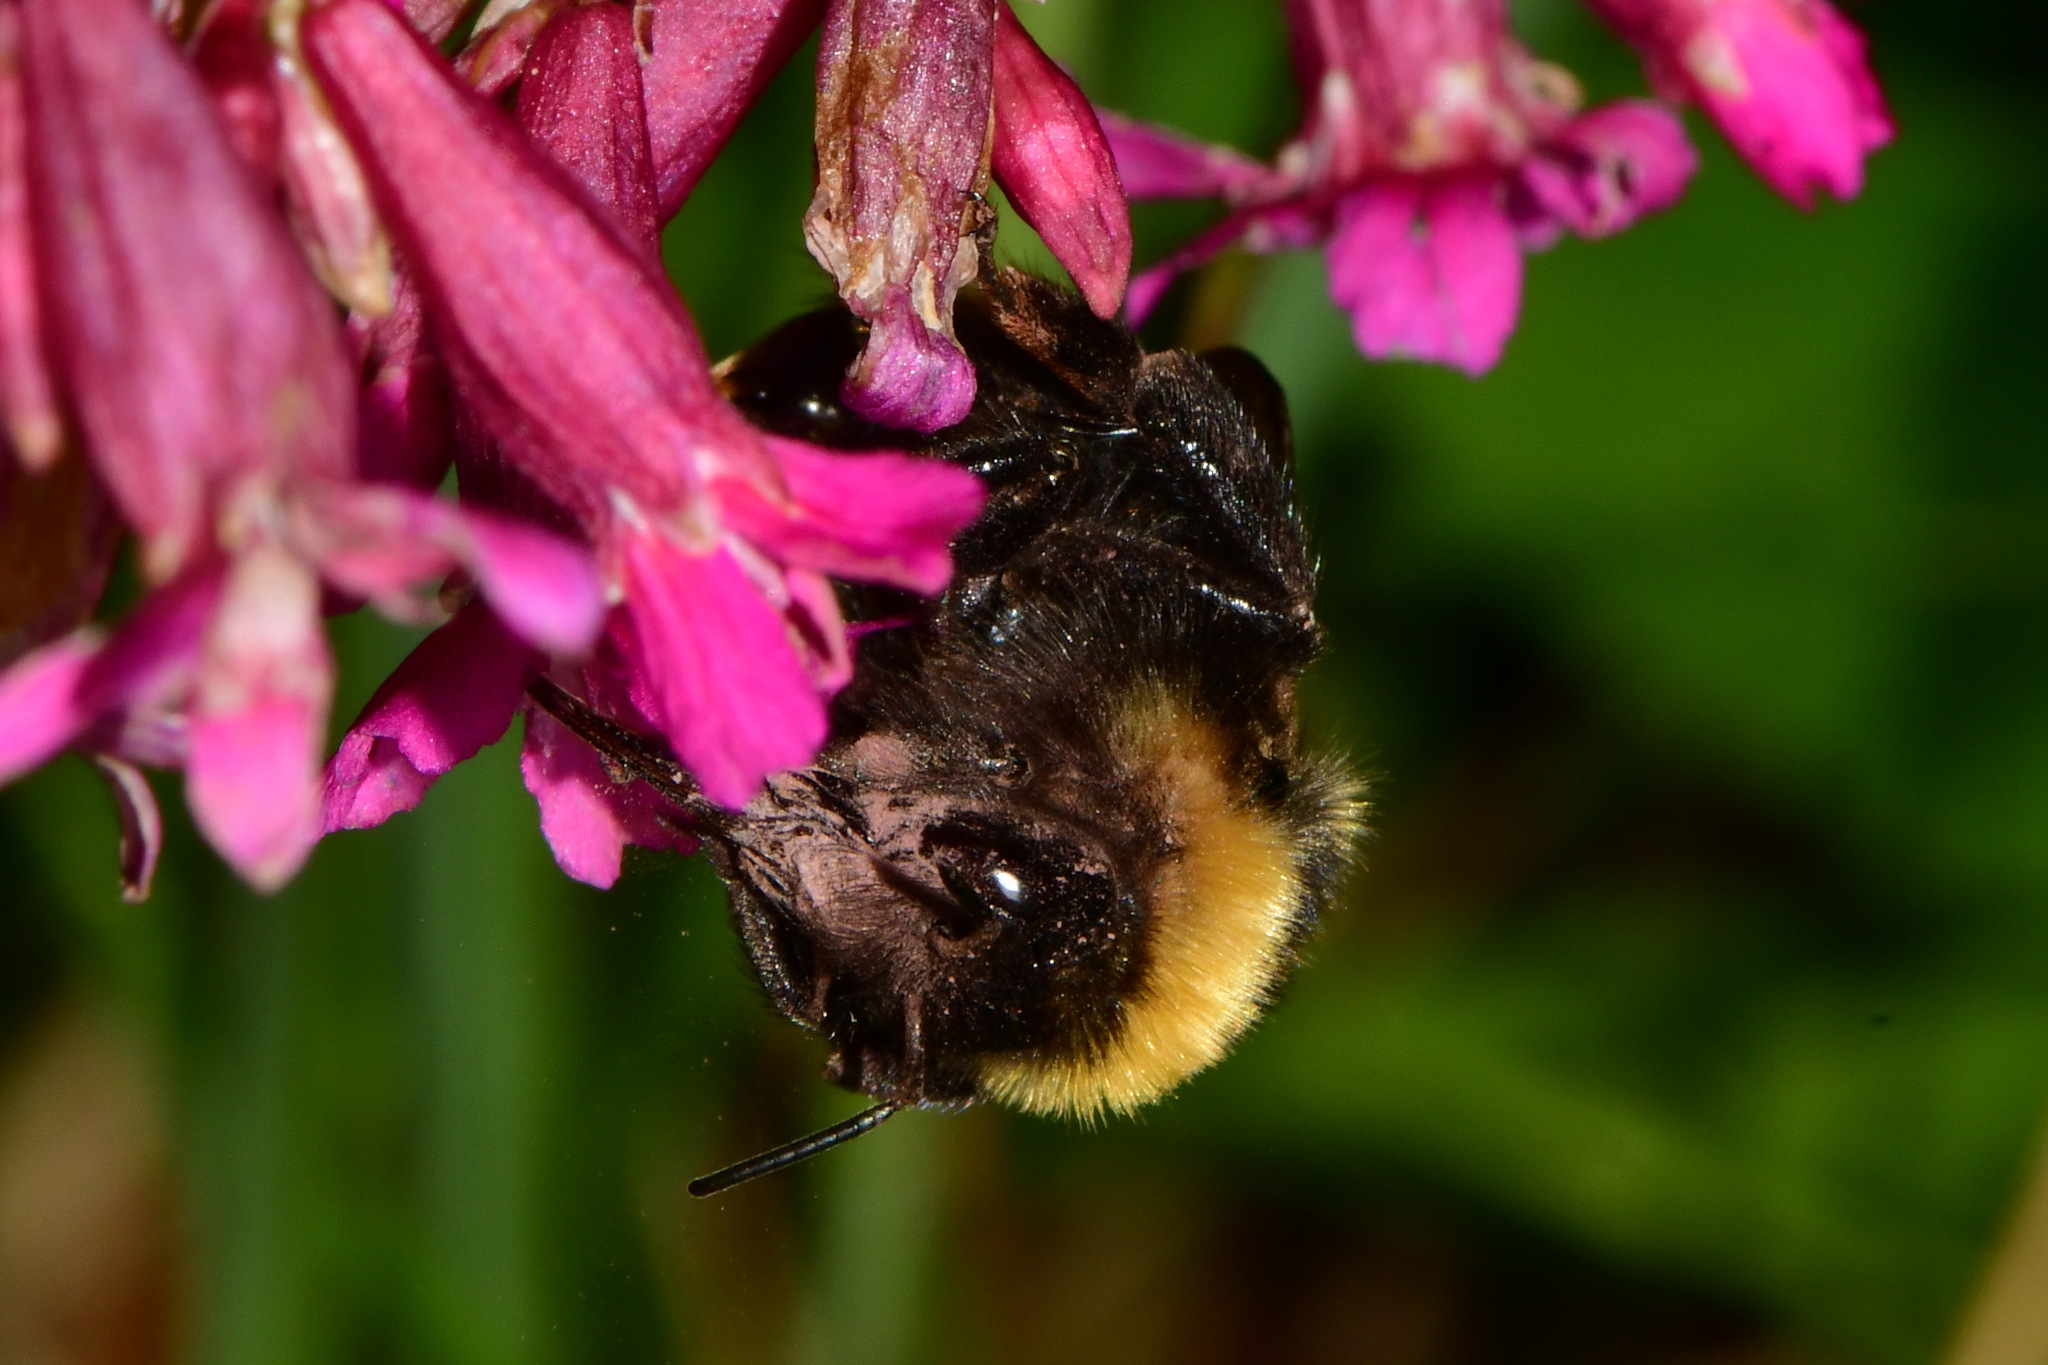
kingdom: Animalia
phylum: Arthropoda
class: Insecta
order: Hymenoptera
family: Apidae
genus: Bombus
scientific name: Bombus campestris
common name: Field cuckoo-bee
